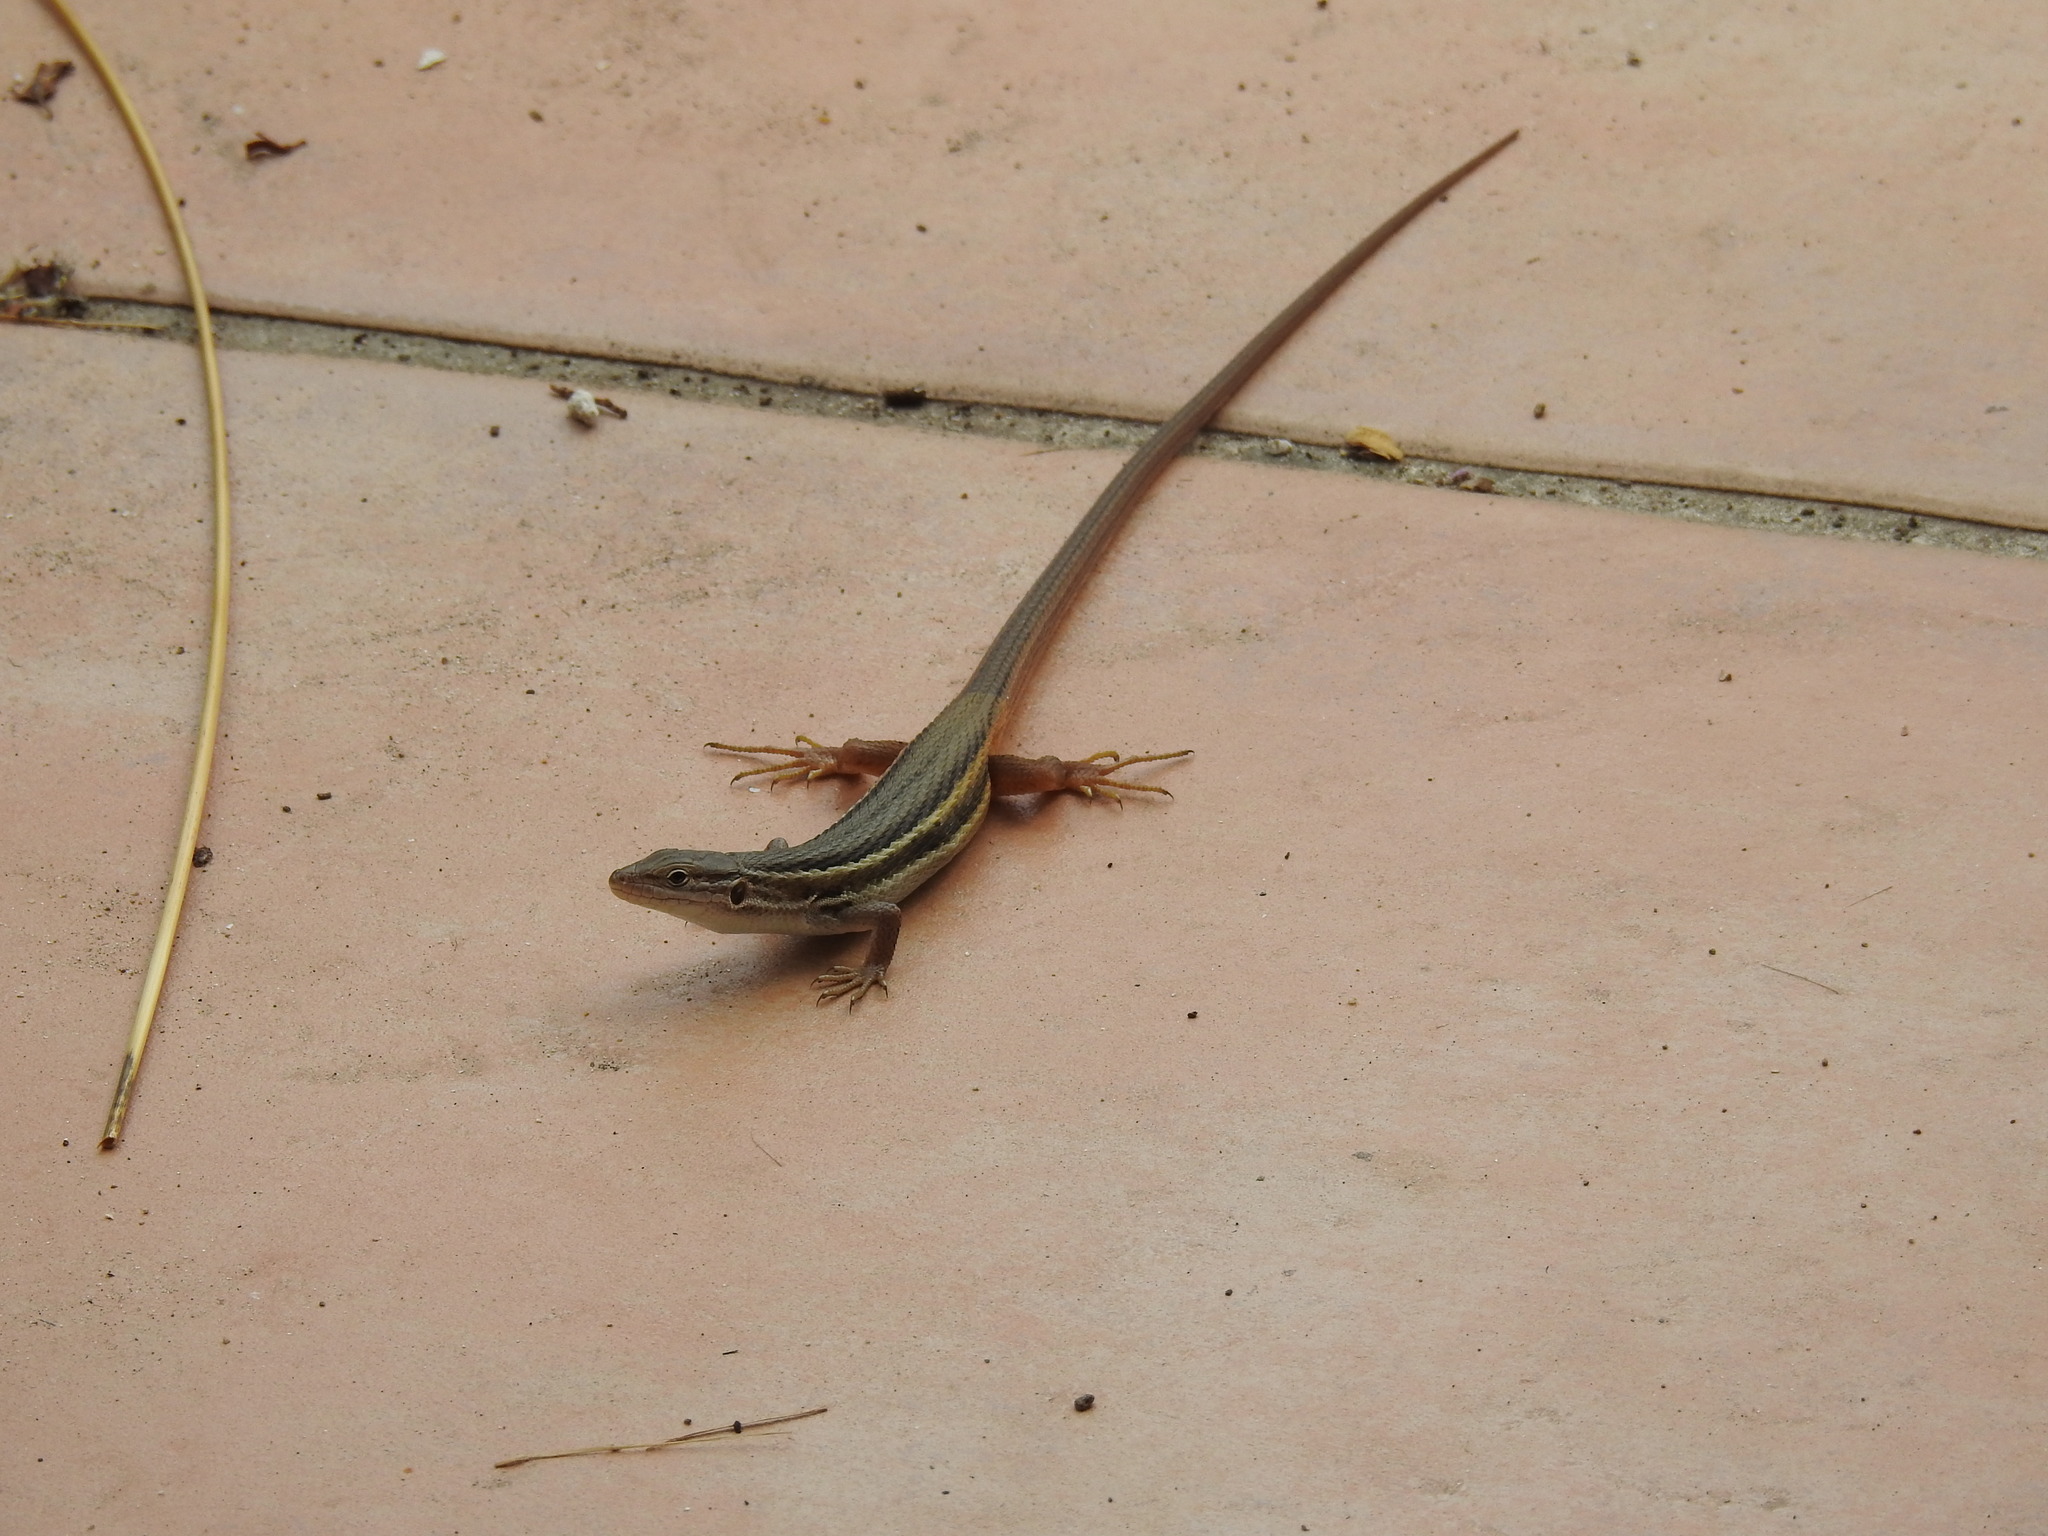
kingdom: Animalia
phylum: Chordata
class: Squamata
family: Lacertidae
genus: Psammodromus
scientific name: Psammodromus algirus
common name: Algerian psammodromus
